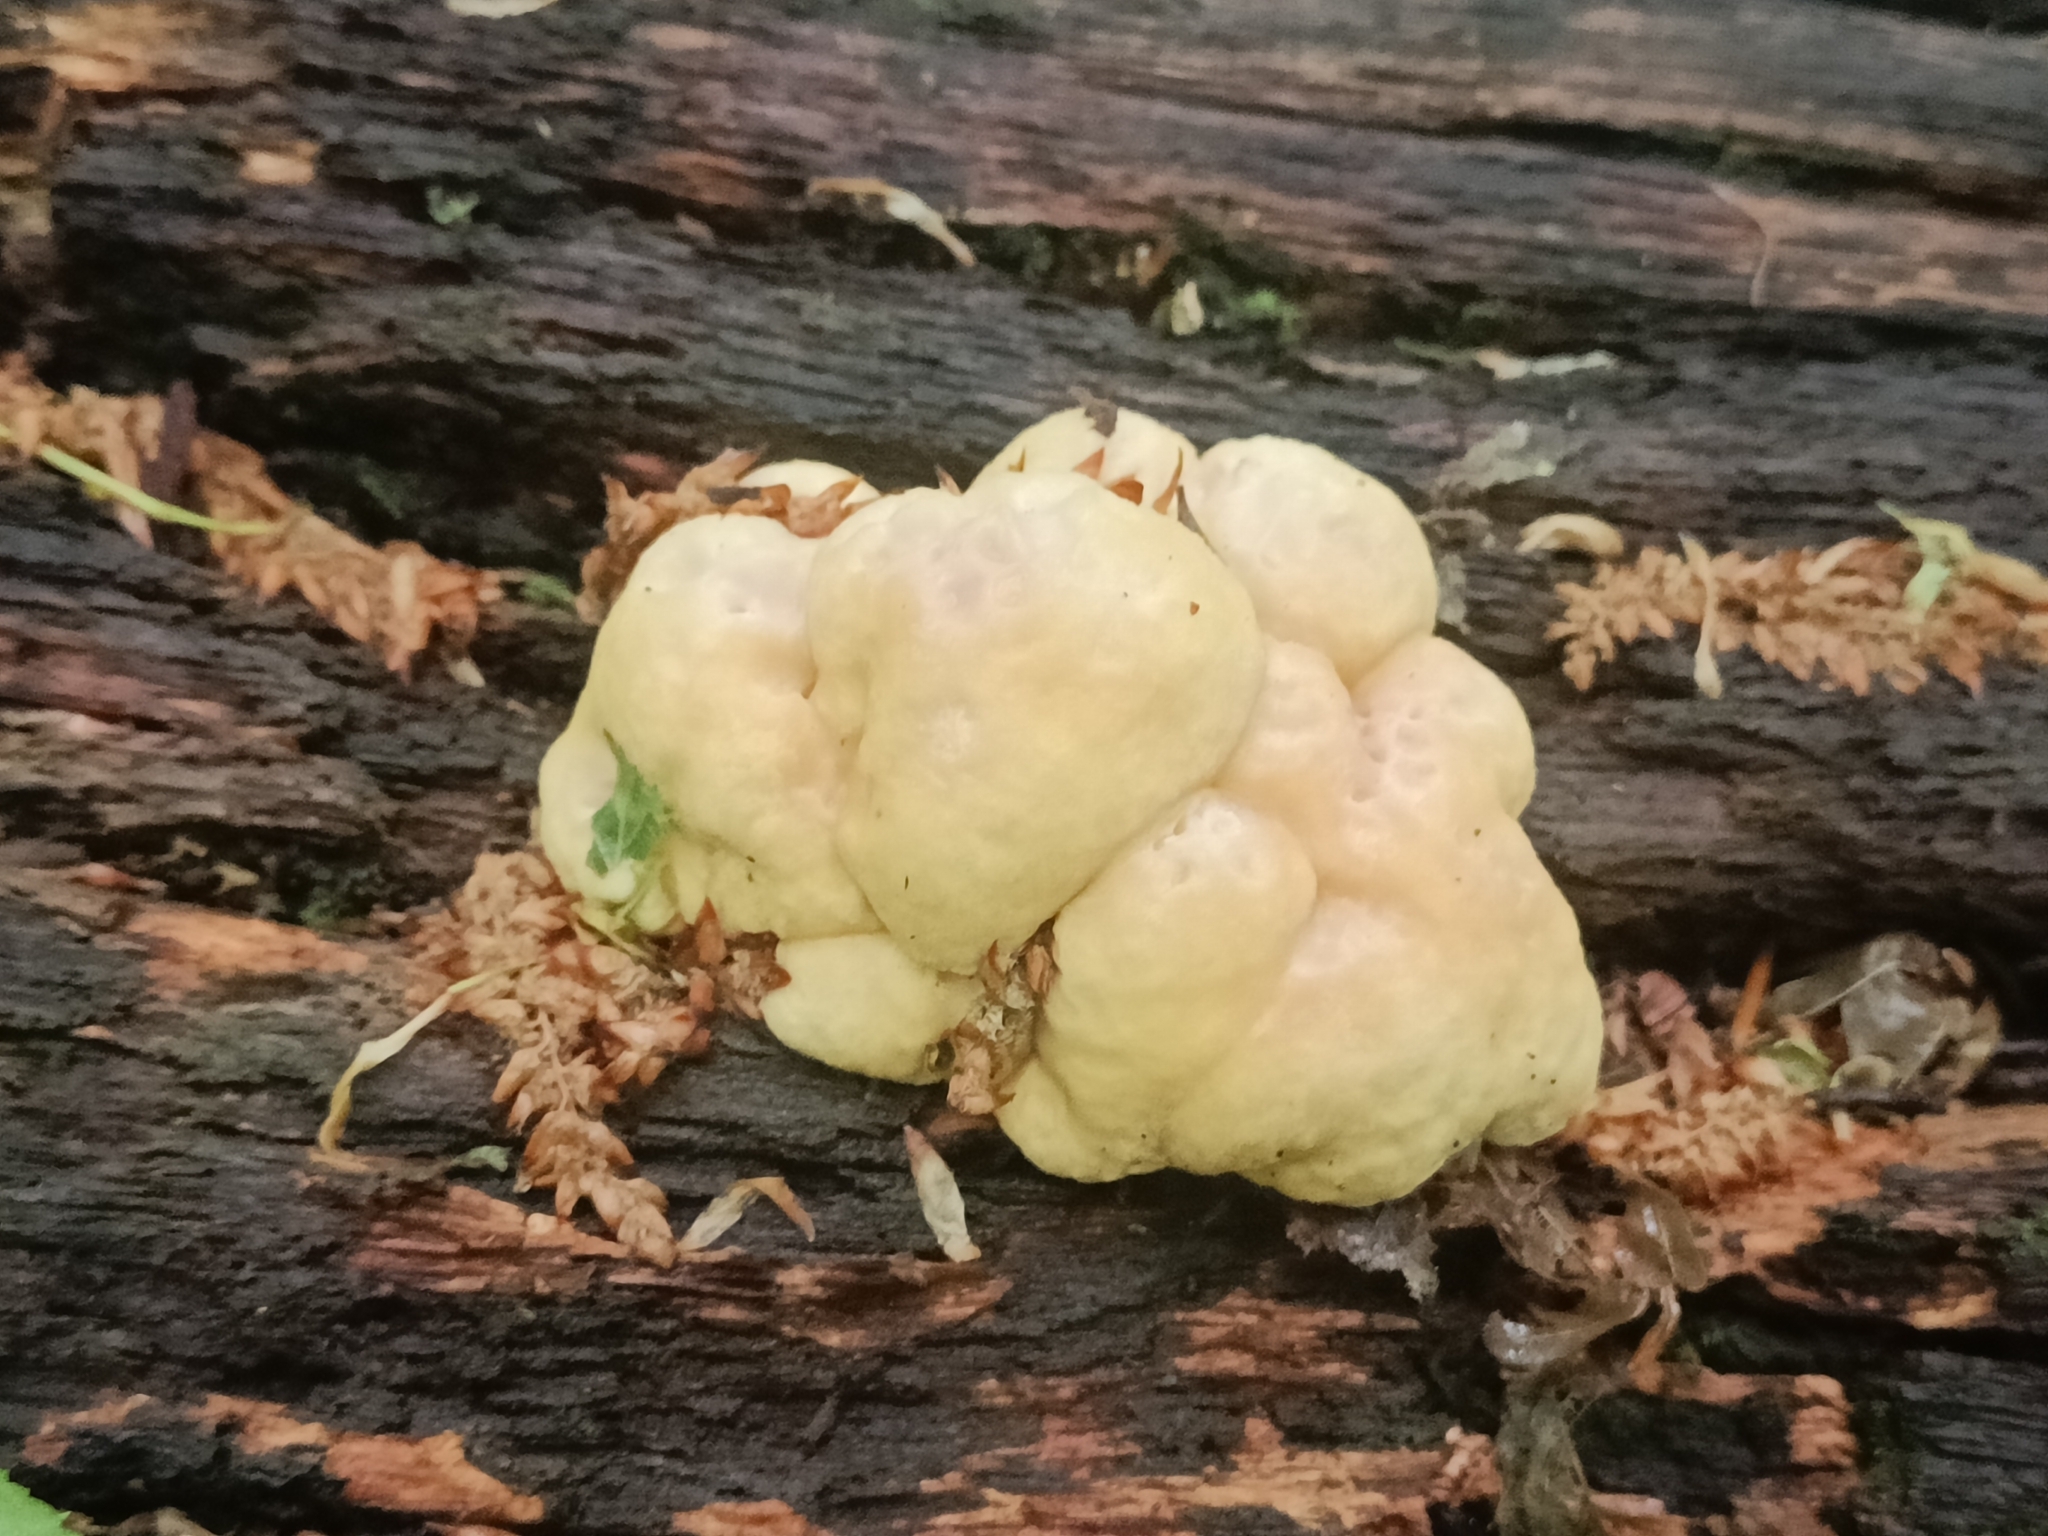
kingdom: Fungi
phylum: Basidiomycota
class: Agaricomycetes
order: Polyporales
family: Laetiporaceae
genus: Laetiporus
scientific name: Laetiporus sulphureus
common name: Chicken of the woods
